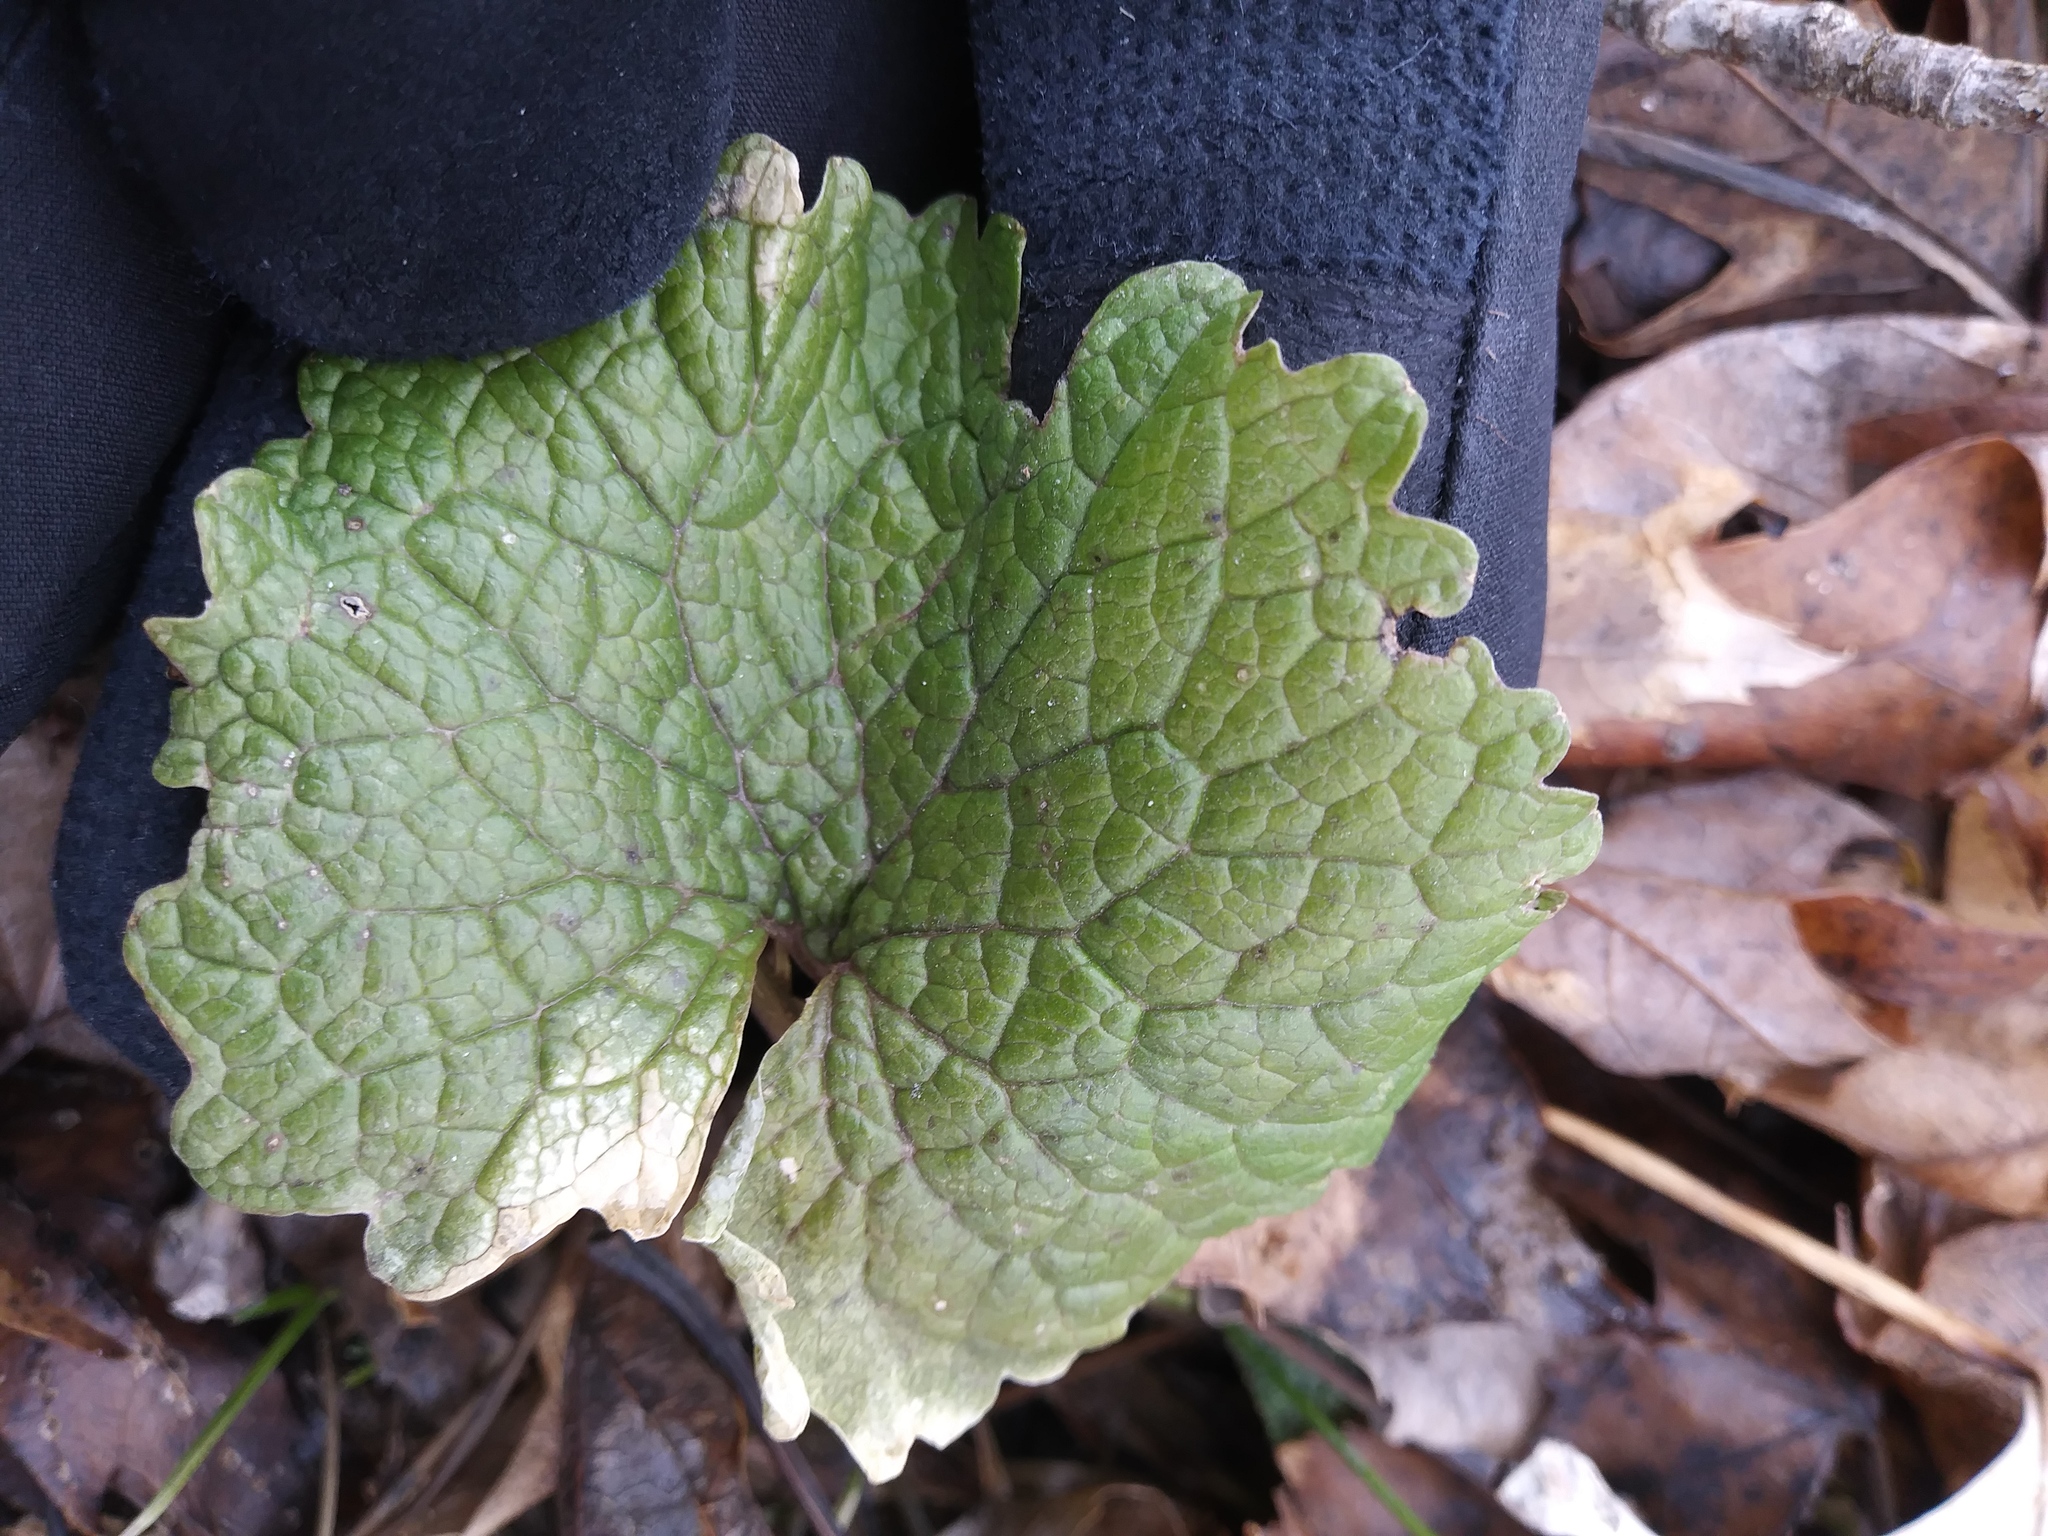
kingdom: Plantae
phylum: Tracheophyta
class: Magnoliopsida
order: Brassicales
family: Brassicaceae
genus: Alliaria
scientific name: Alliaria petiolata
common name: Garlic mustard
